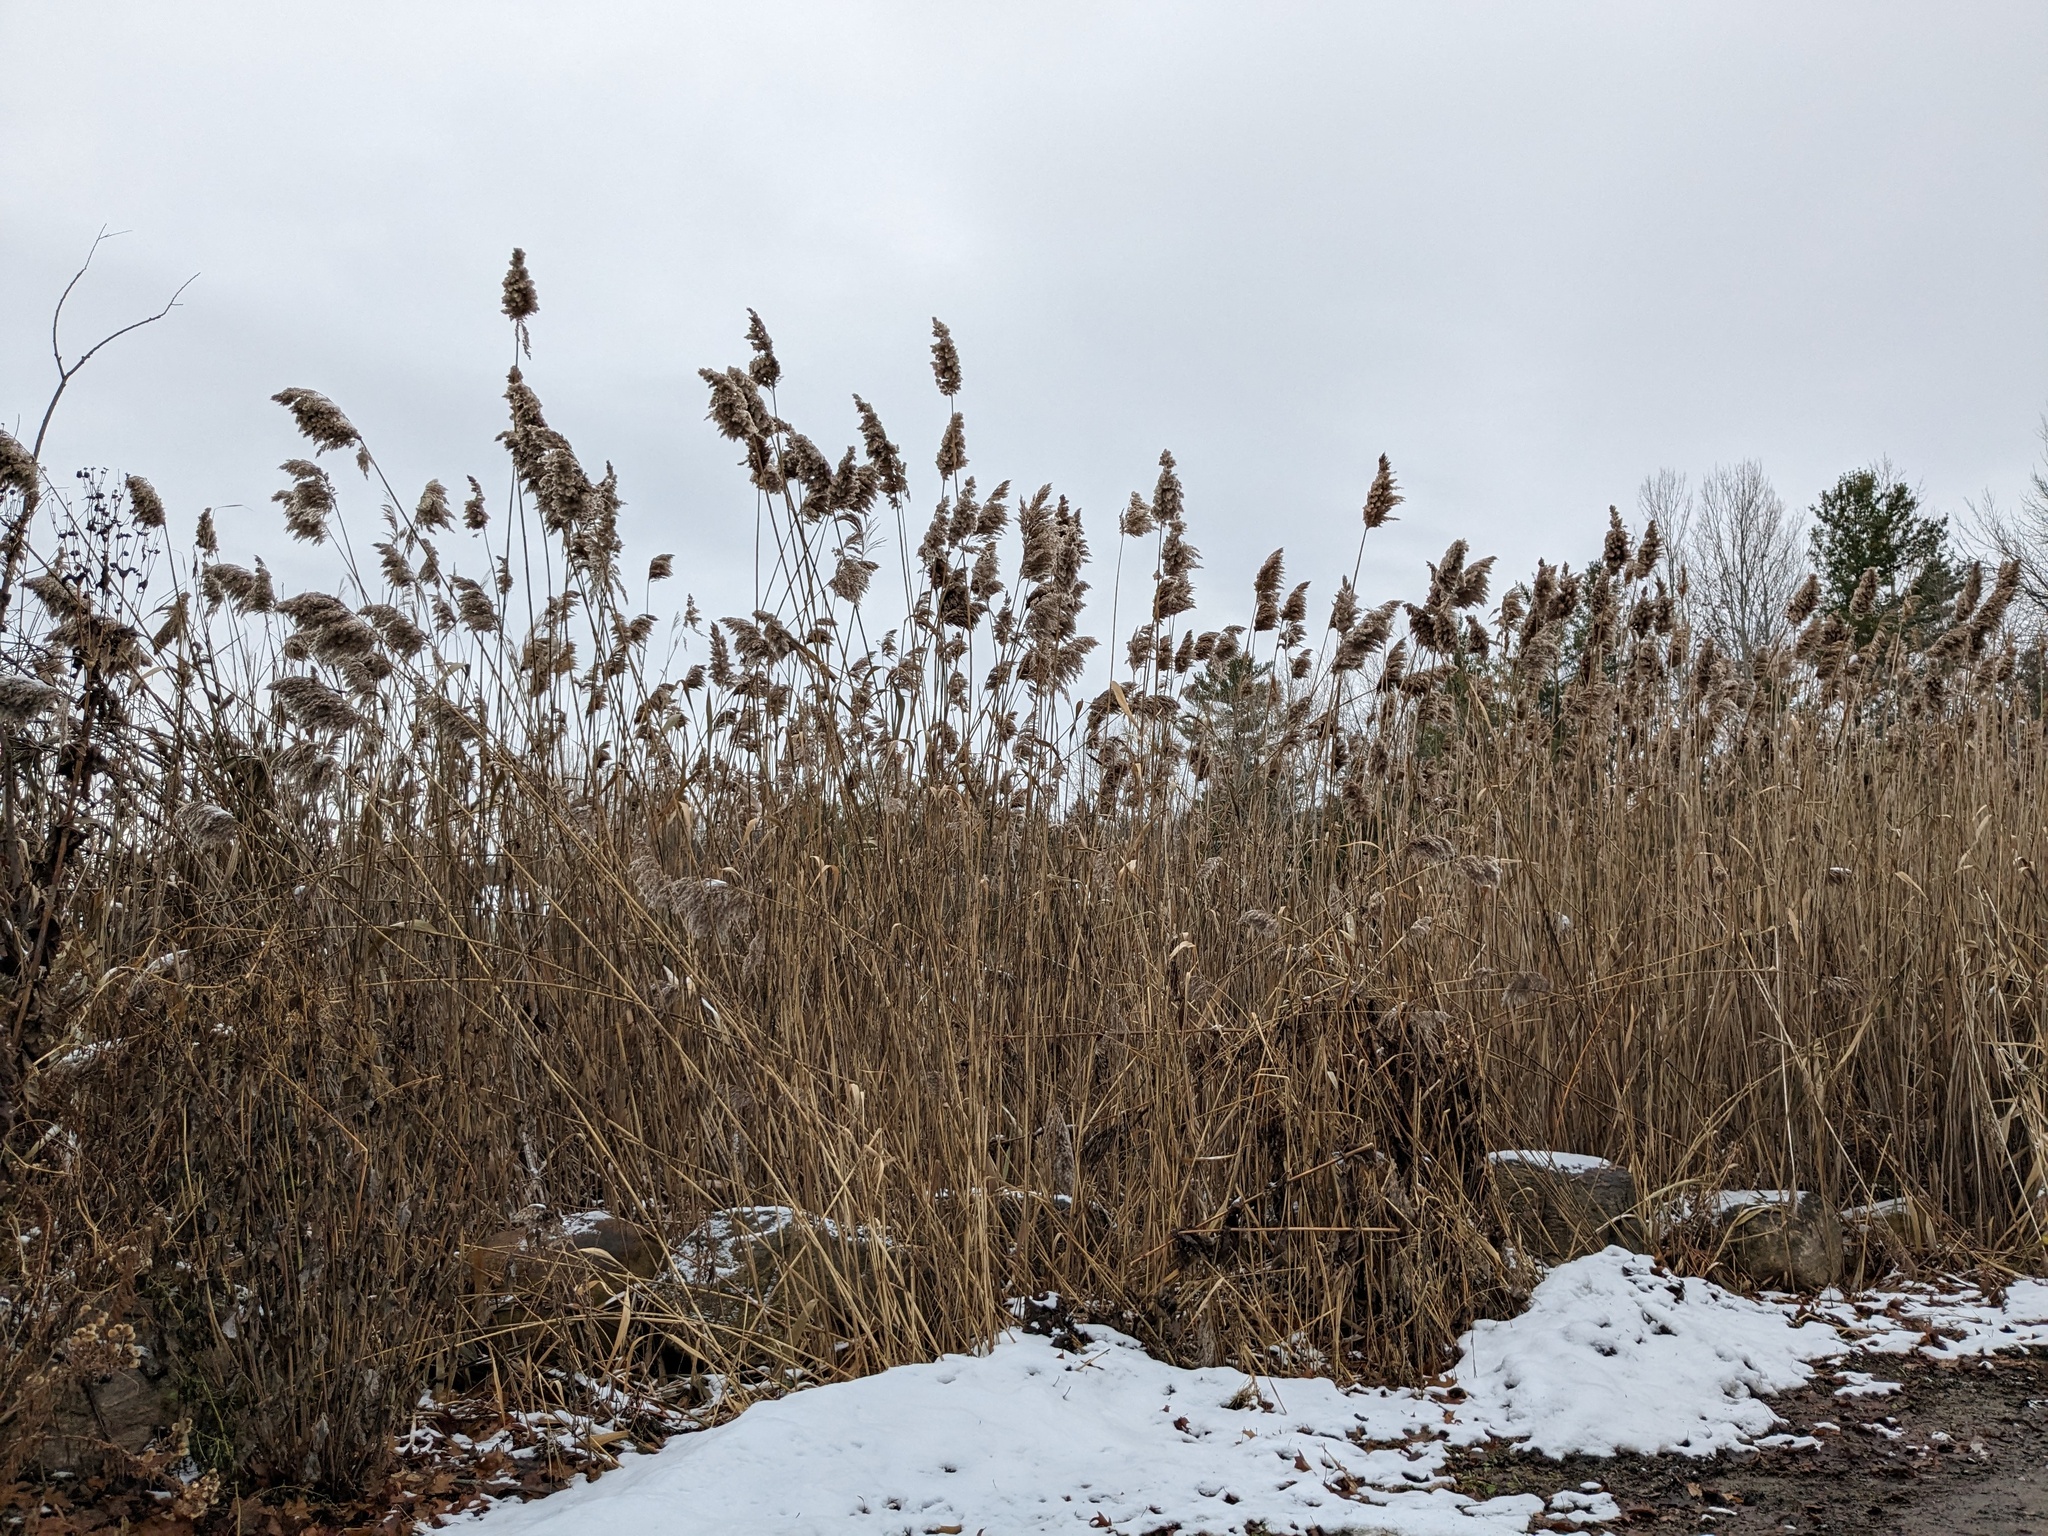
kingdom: Plantae
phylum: Tracheophyta
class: Liliopsida
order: Poales
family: Poaceae
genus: Phragmites
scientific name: Phragmites australis
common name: Common reed
